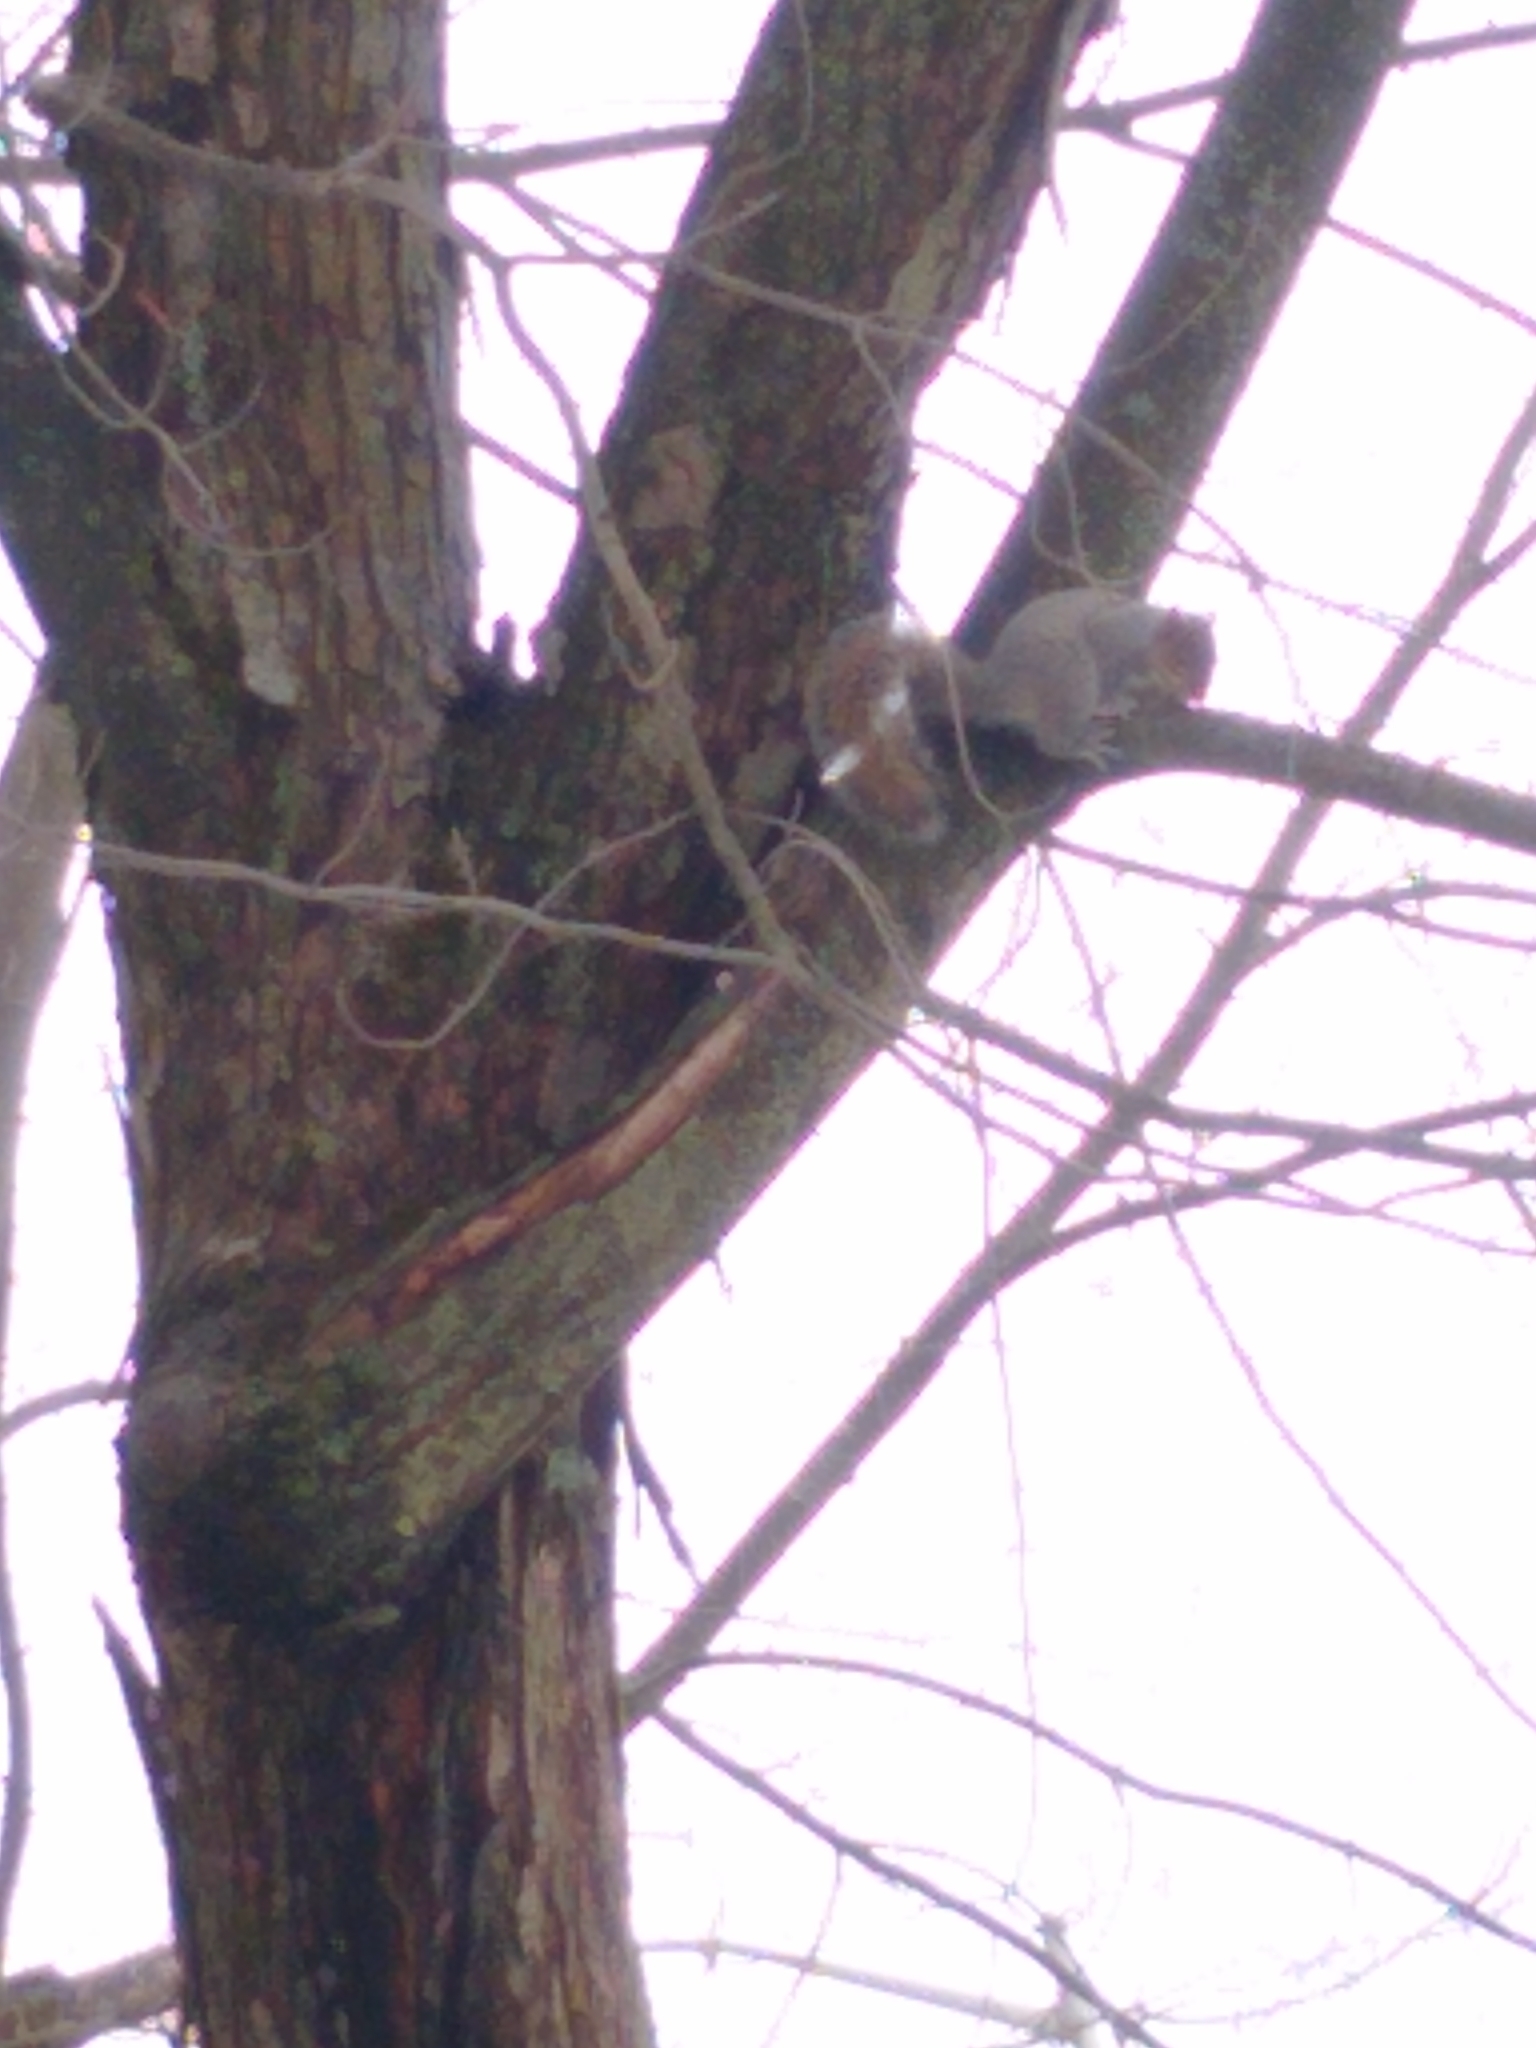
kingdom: Animalia
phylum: Chordata
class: Mammalia
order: Rodentia
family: Sciuridae
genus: Sciurus
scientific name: Sciurus carolinensis
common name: Eastern gray squirrel
